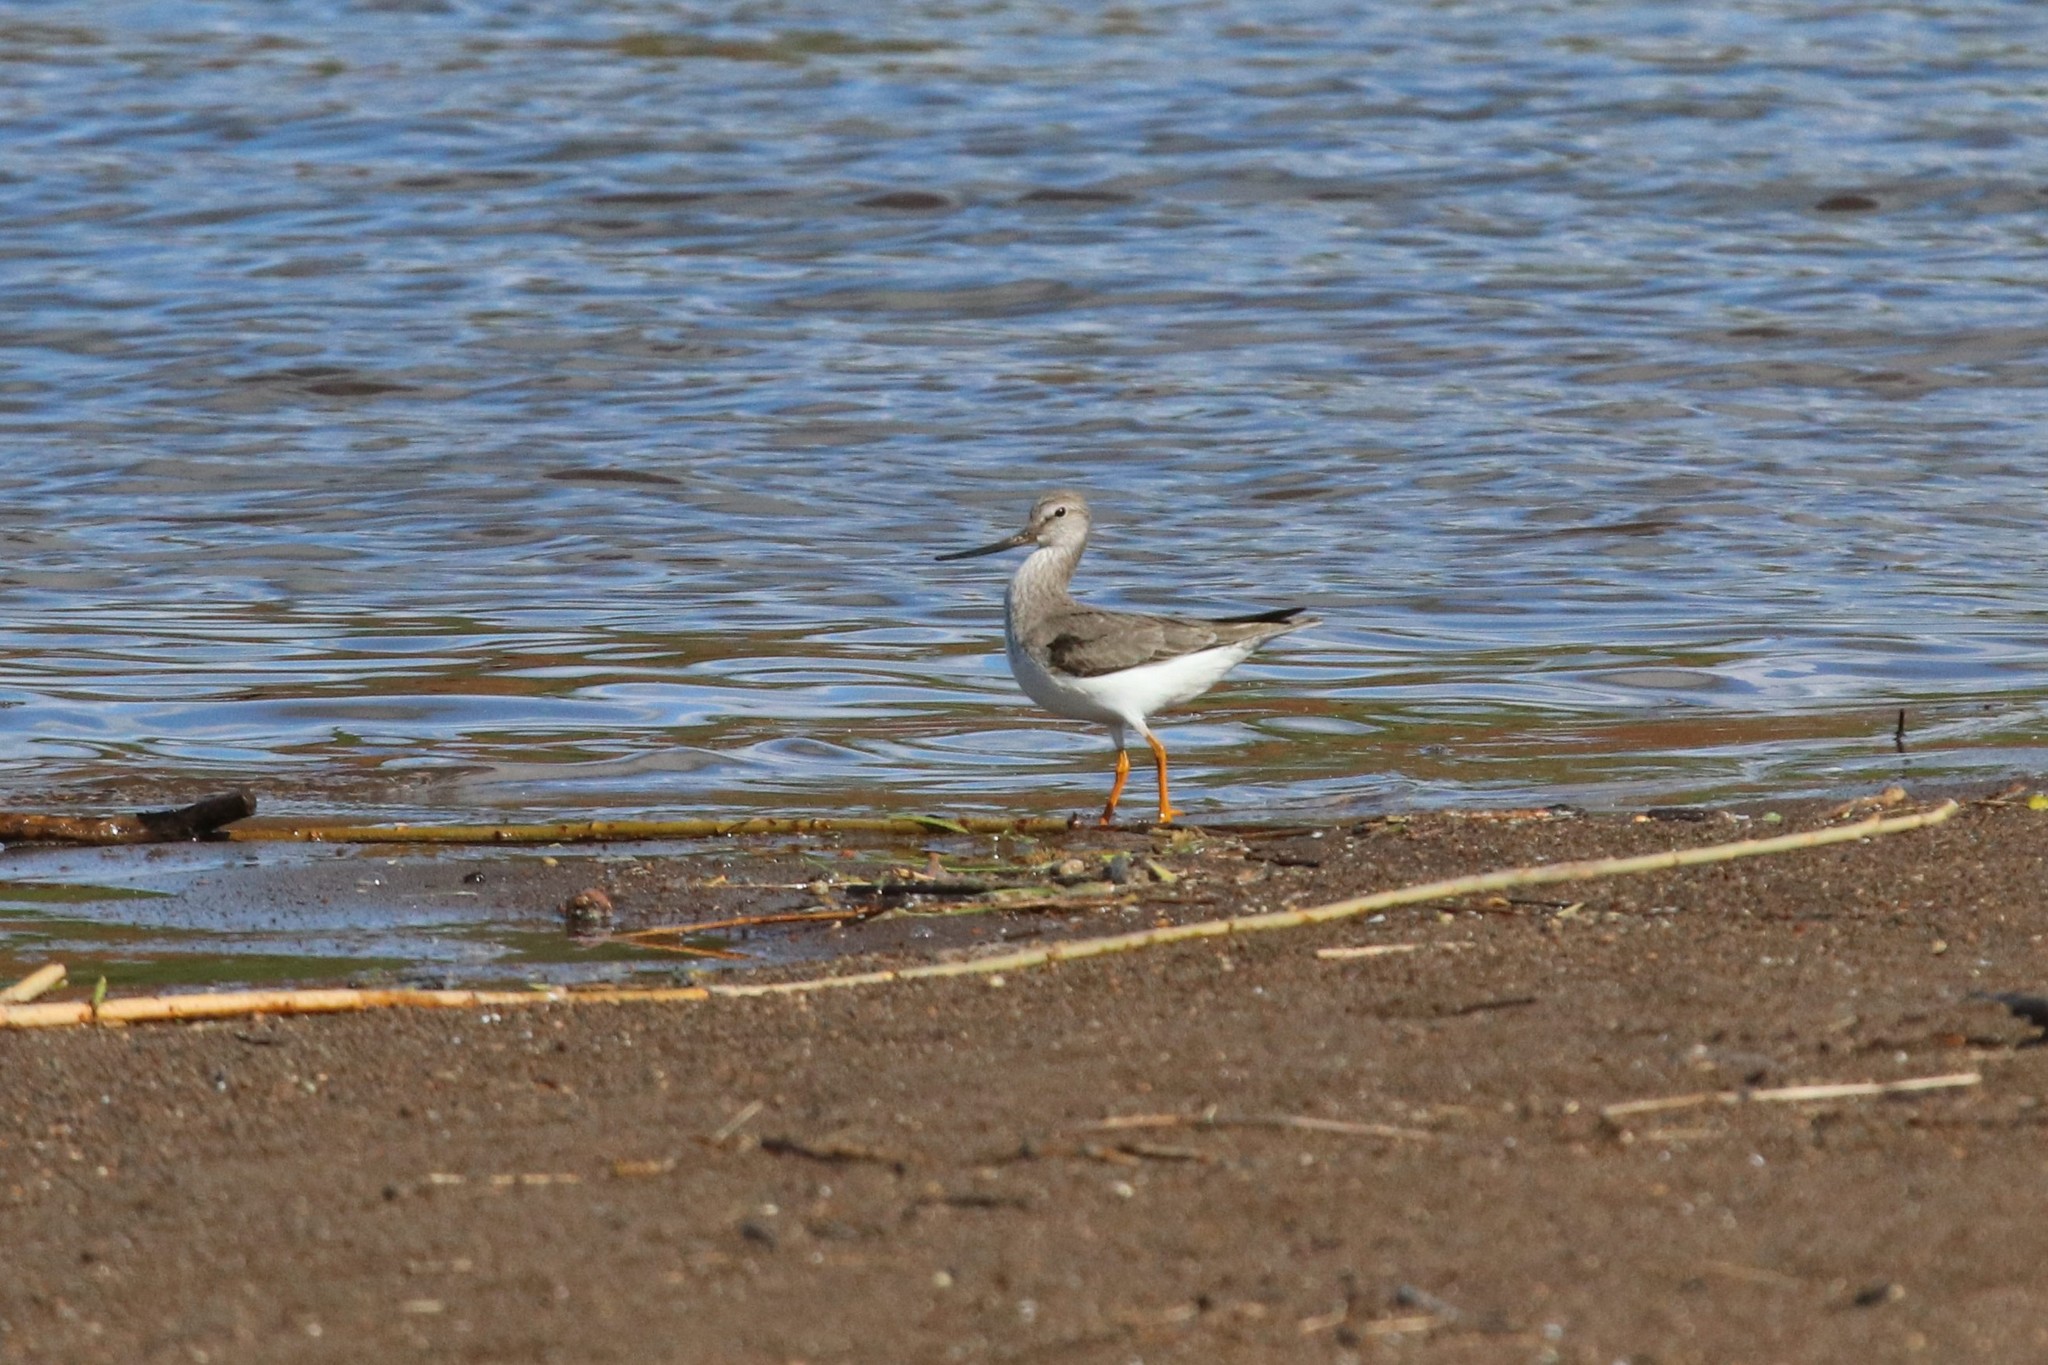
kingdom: Animalia
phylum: Chordata
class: Aves
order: Charadriiformes
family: Scolopacidae
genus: Xenus
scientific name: Xenus cinereus
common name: Terek sandpiper
